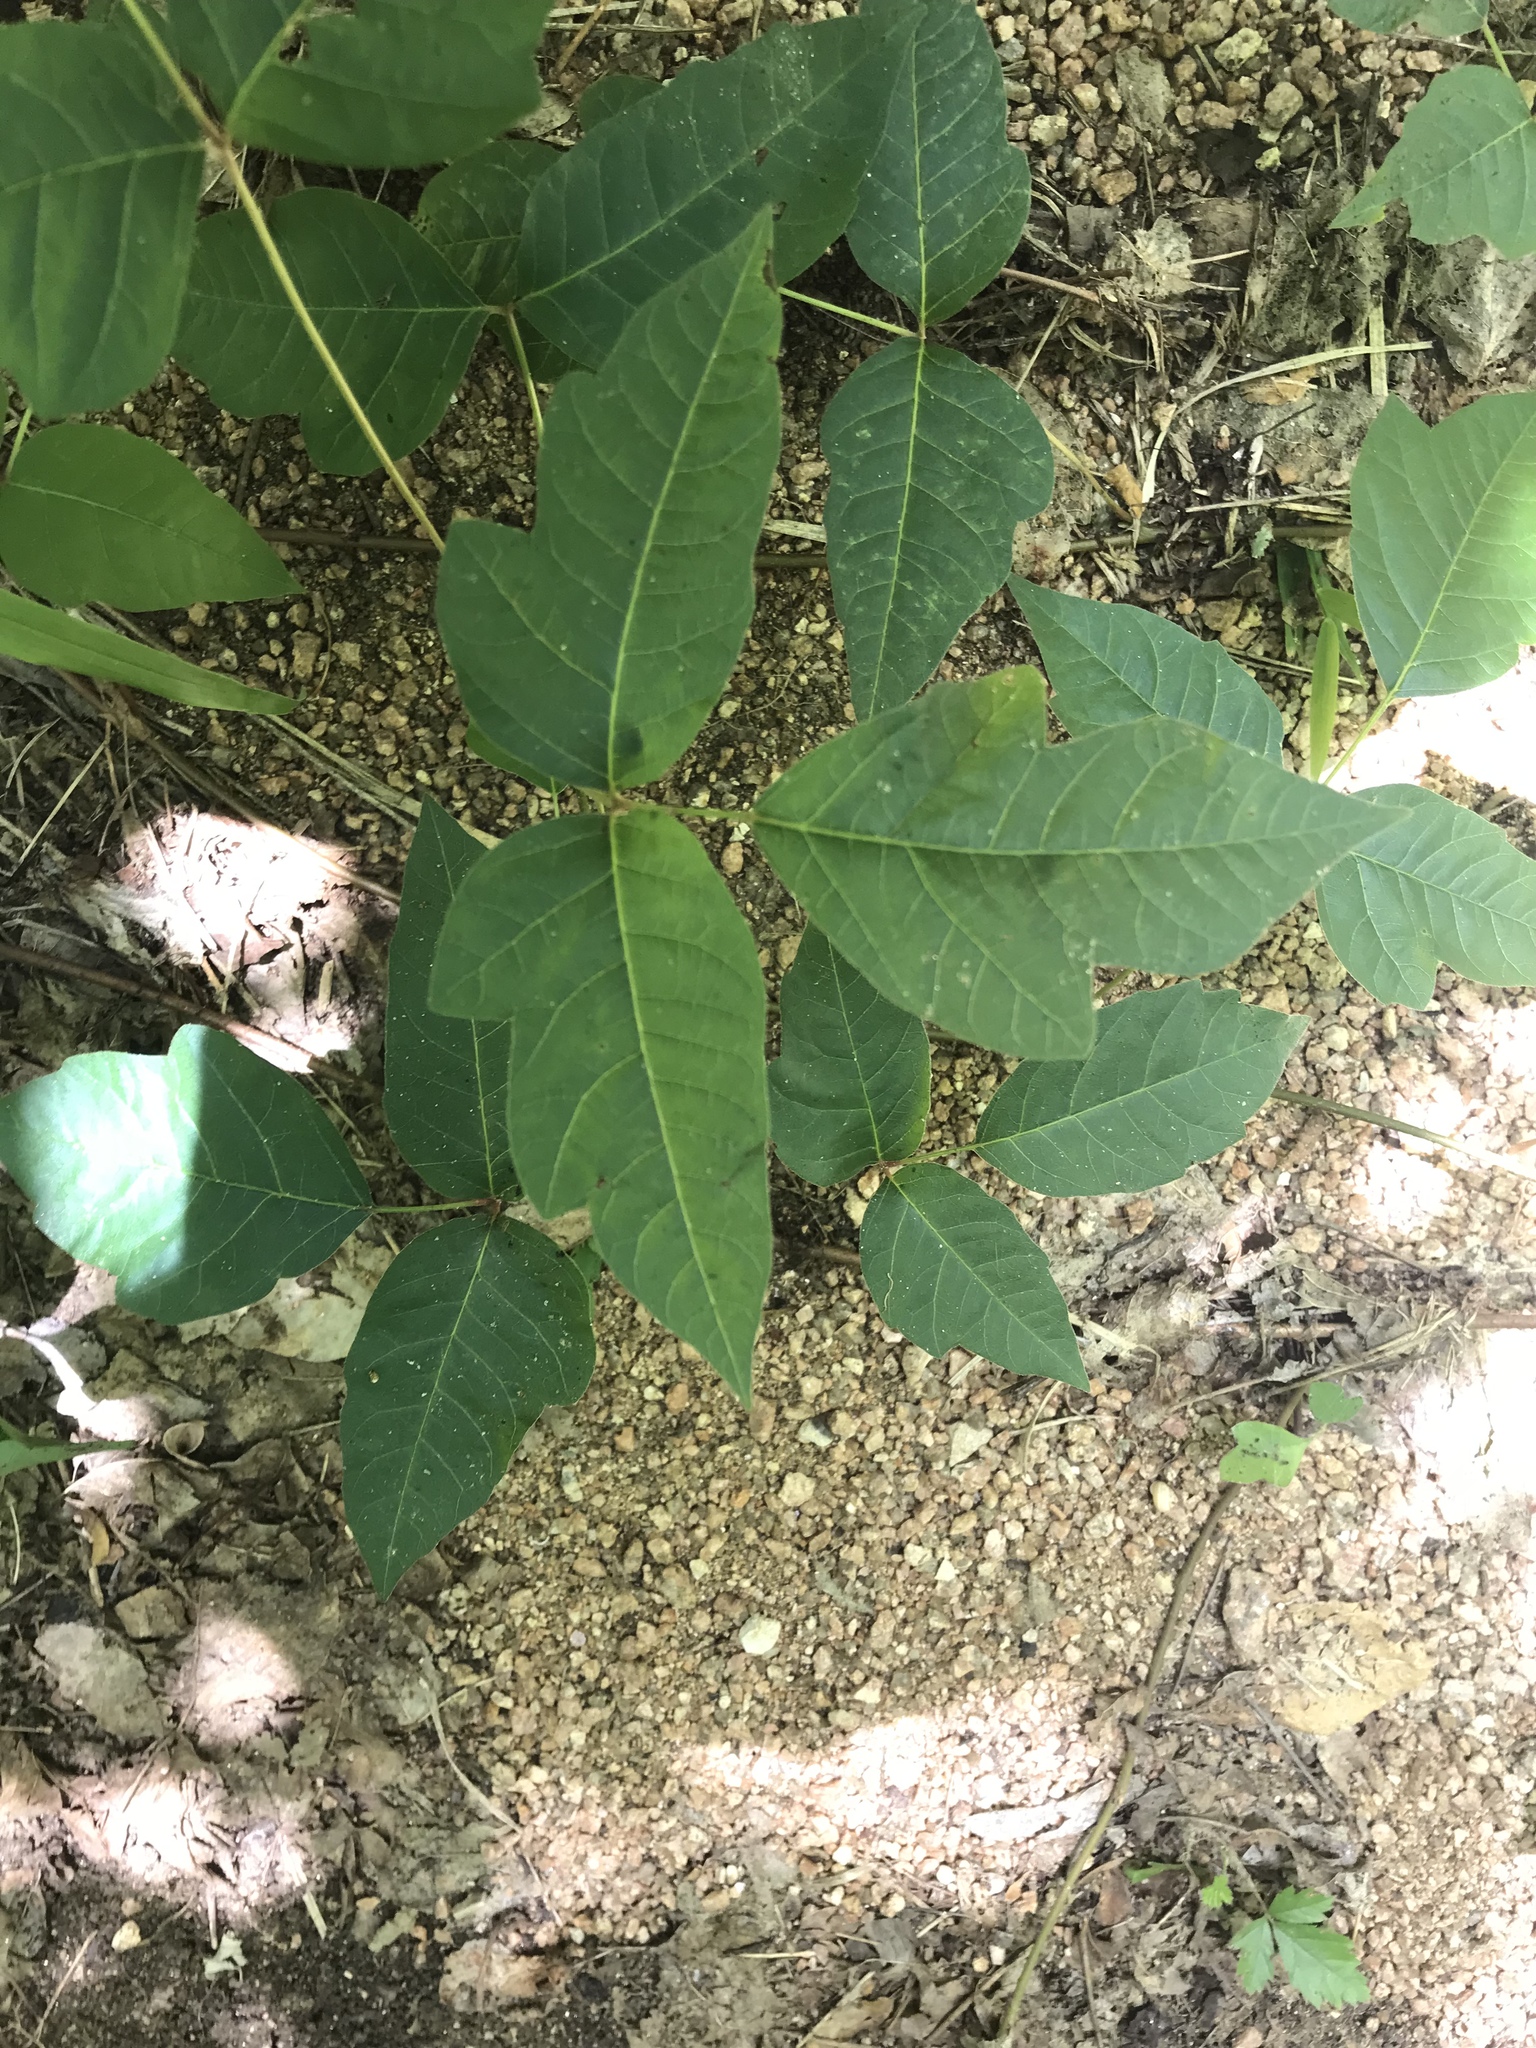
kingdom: Plantae
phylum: Tracheophyta
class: Magnoliopsida
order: Sapindales
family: Anacardiaceae
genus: Toxicodendron
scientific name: Toxicodendron radicans
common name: Poison ivy
